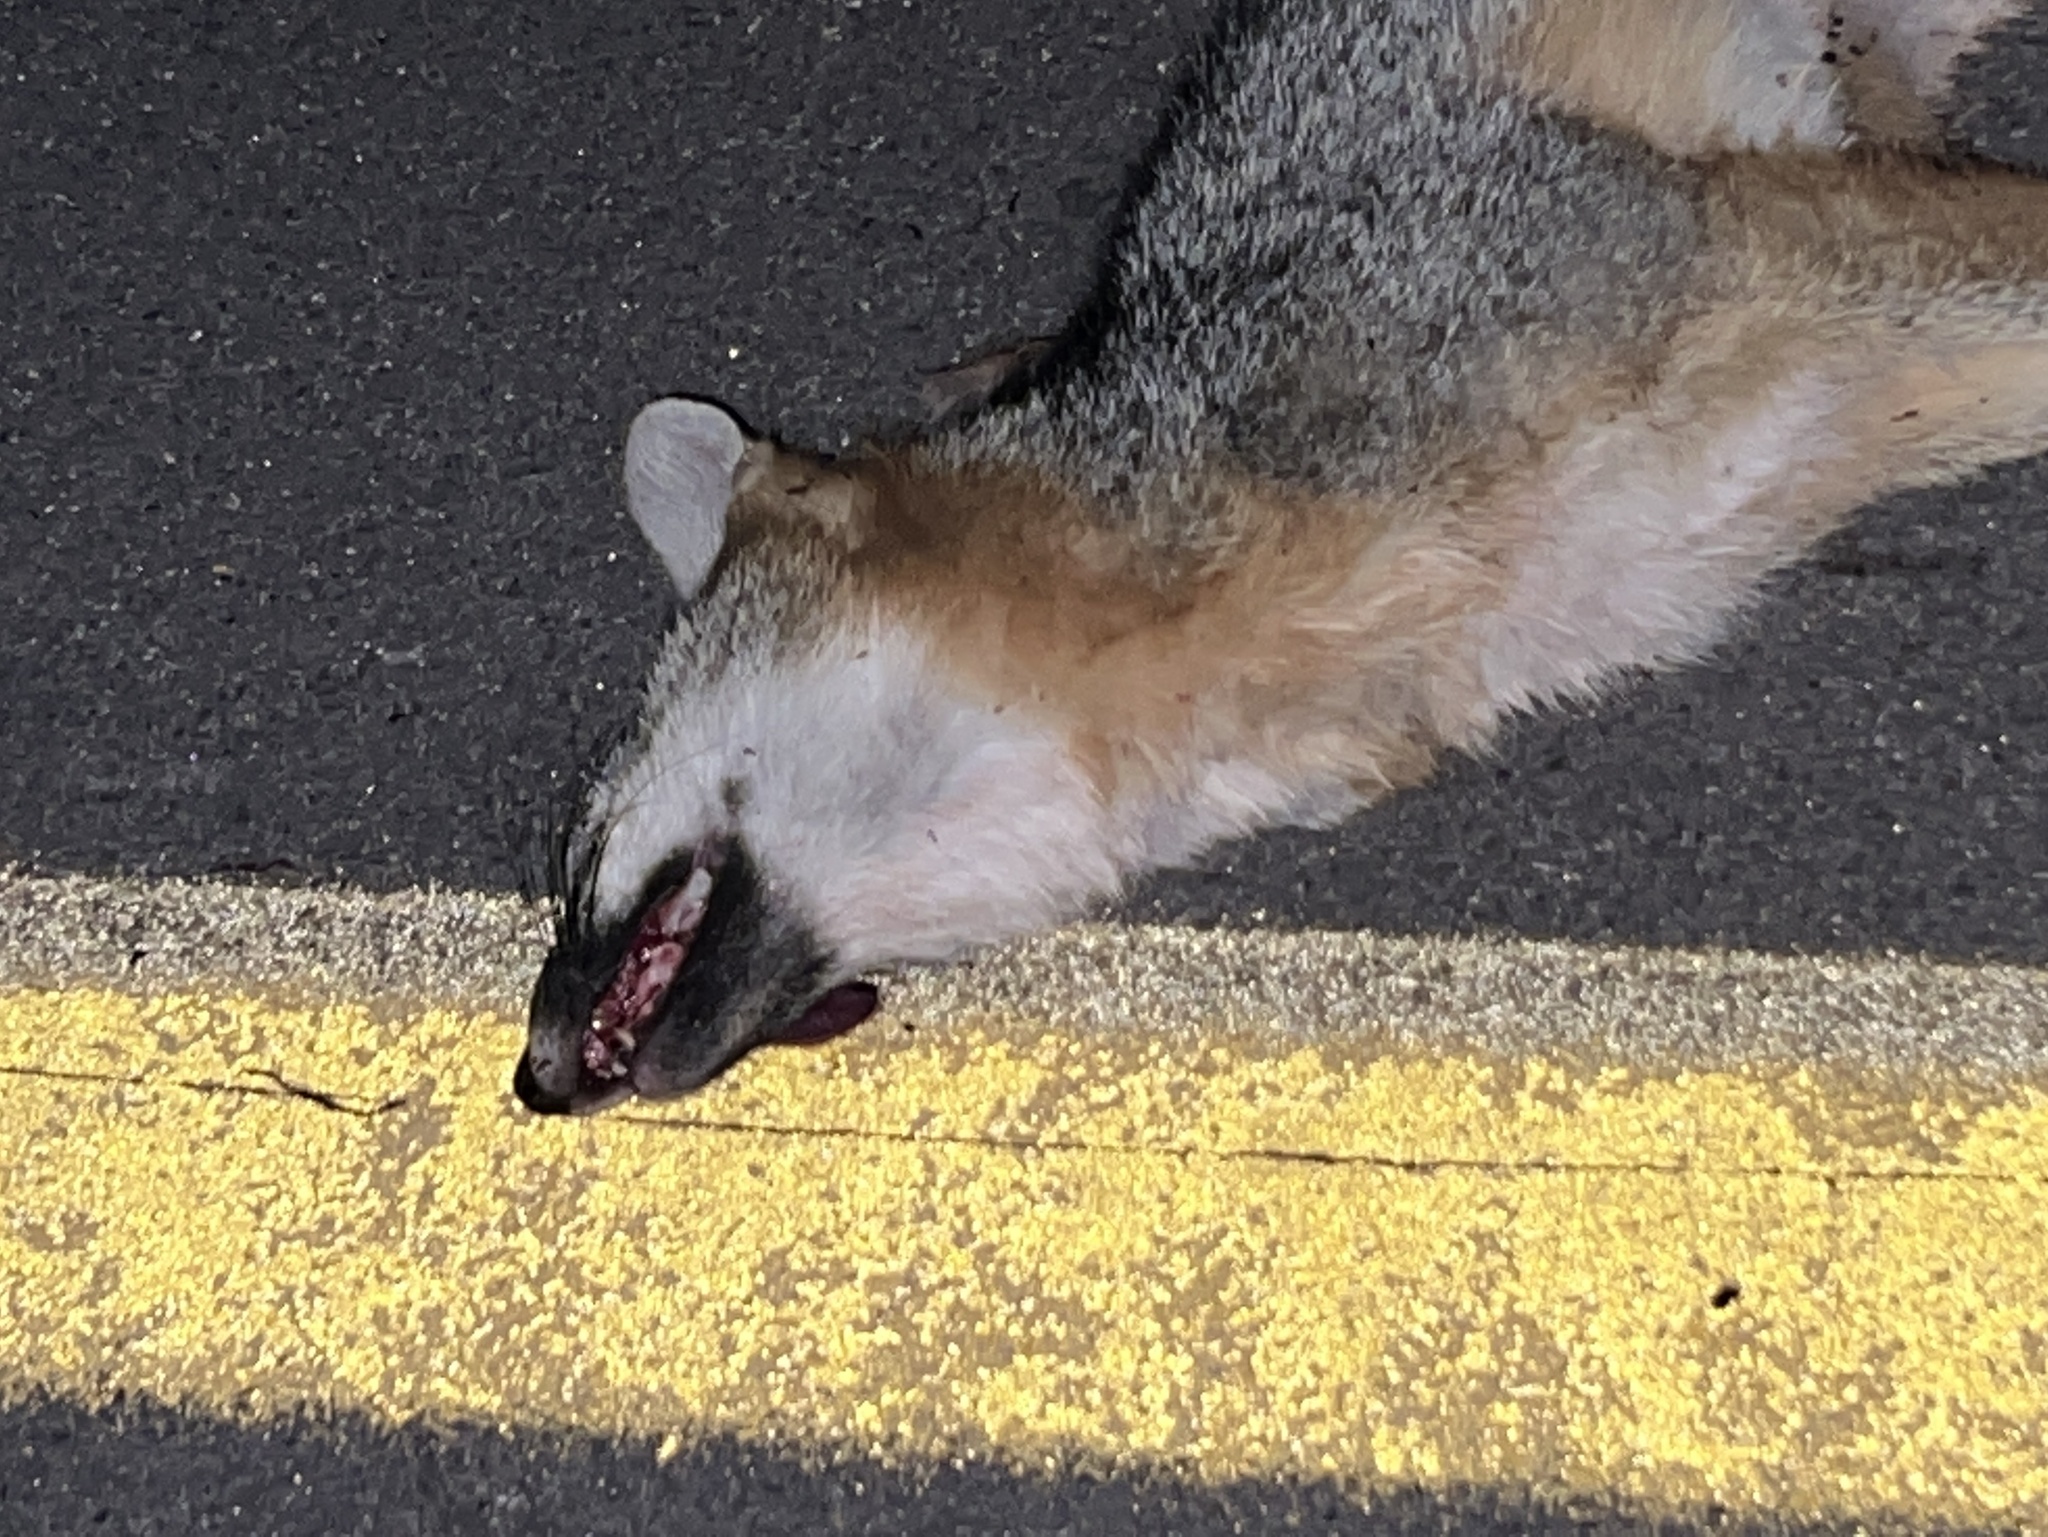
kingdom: Animalia
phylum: Chordata
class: Mammalia
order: Carnivora
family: Canidae
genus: Urocyon
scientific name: Urocyon cinereoargenteus
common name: Gray fox
